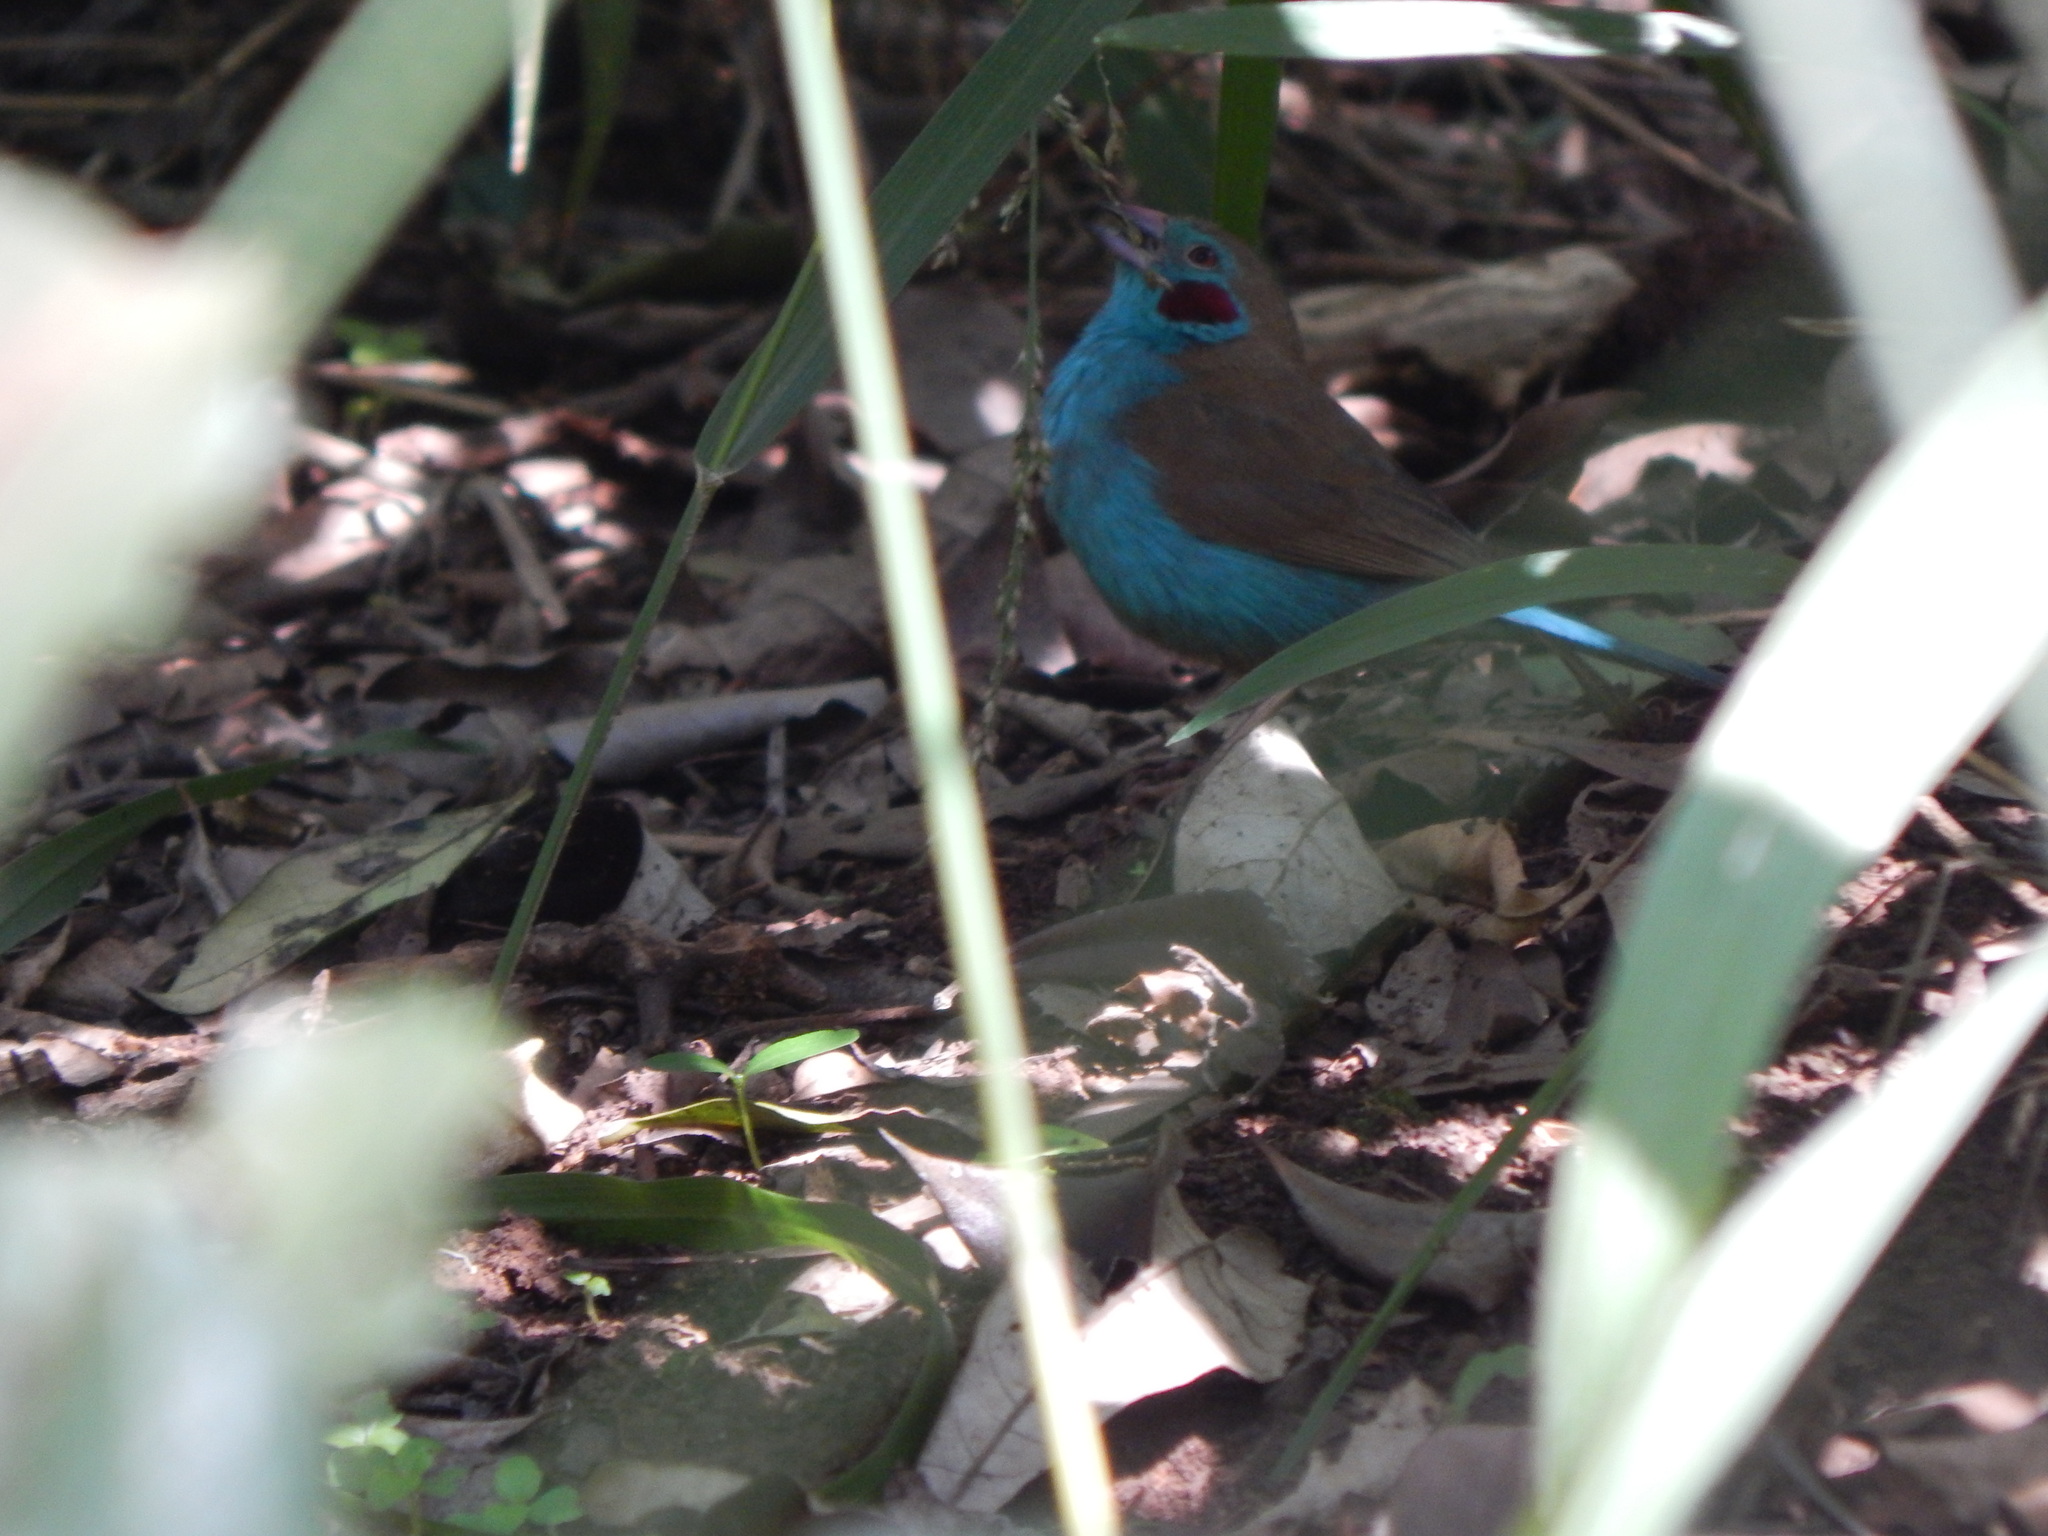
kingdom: Animalia
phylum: Chordata
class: Aves
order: Passeriformes
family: Estrildidae
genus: Uraeginthus
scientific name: Uraeginthus bengalus
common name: Red-cheeked cordon-bleu
